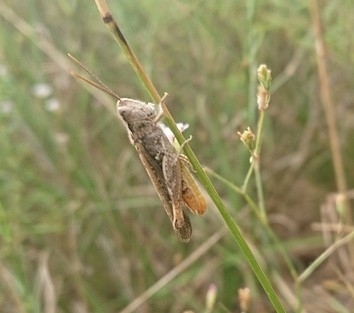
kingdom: Animalia
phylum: Arthropoda
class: Insecta
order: Orthoptera
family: Acrididae
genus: Chorthippus
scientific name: Chorthippus mollis
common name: Lesser field grasshopper
